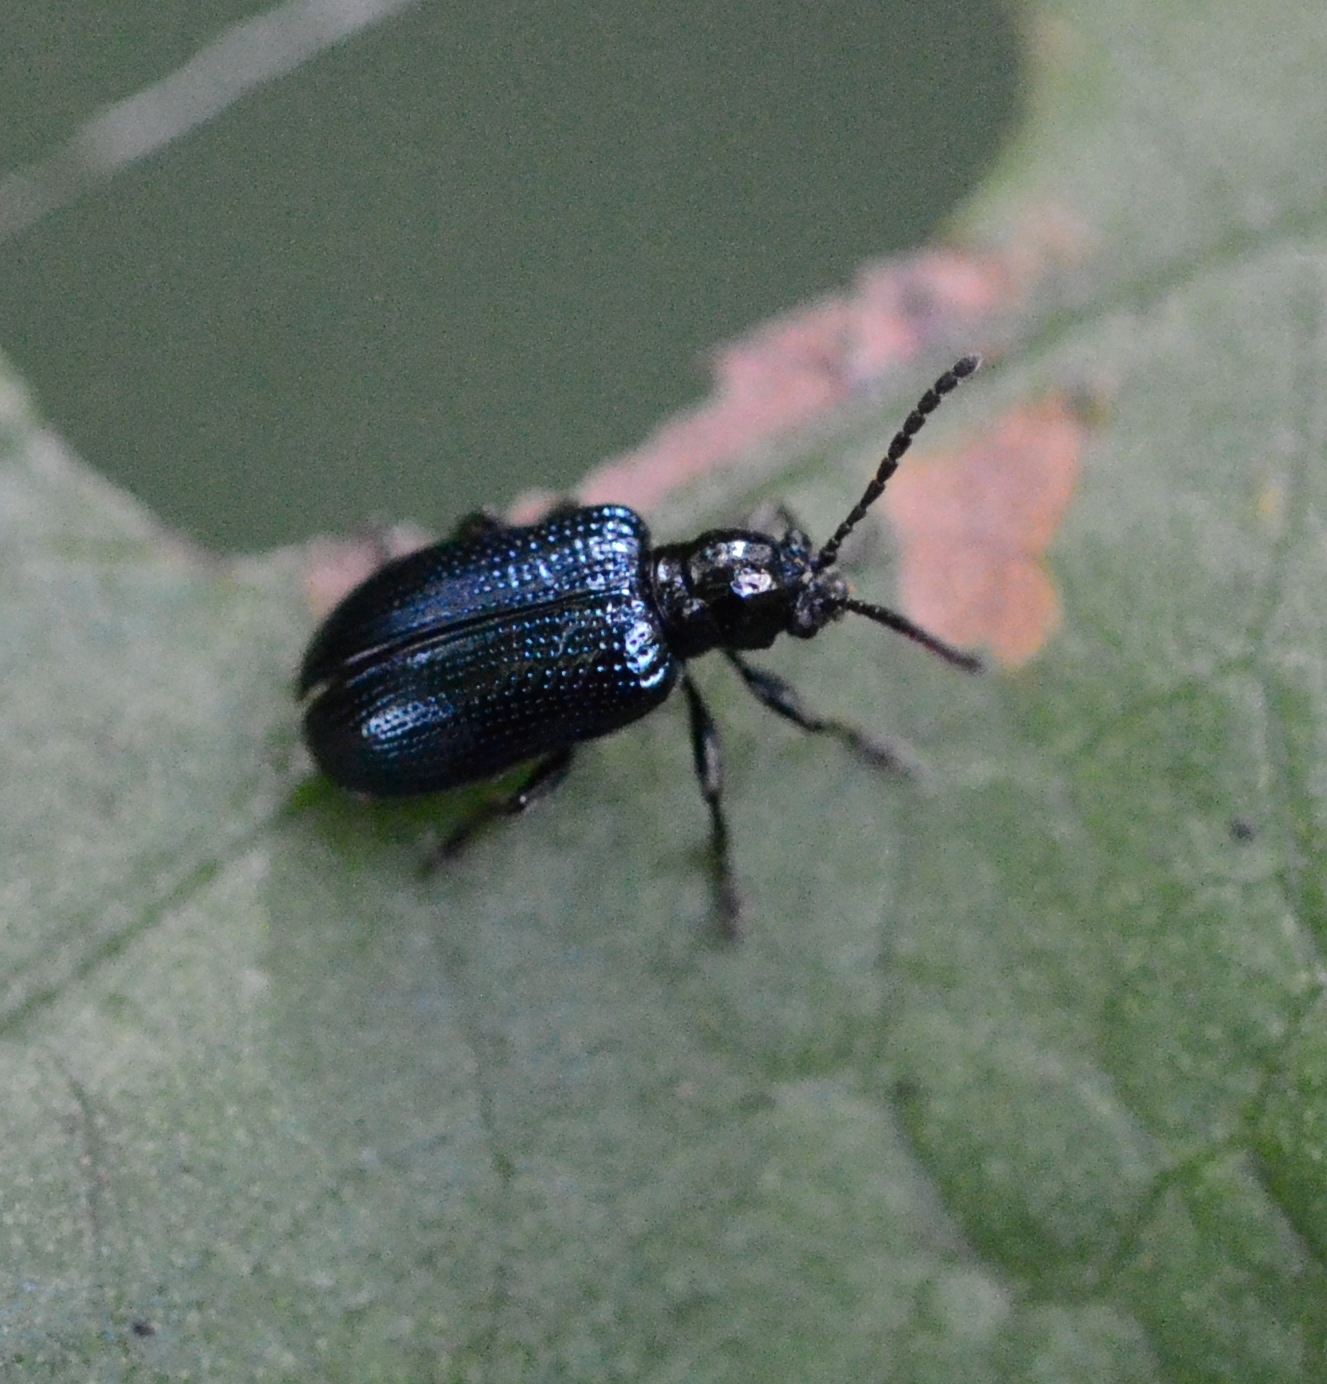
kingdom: Animalia
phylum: Arthropoda
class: Insecta
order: Coleoptera
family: Chrysomelidae
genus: Oulema
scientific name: Oulema gallaeciana
